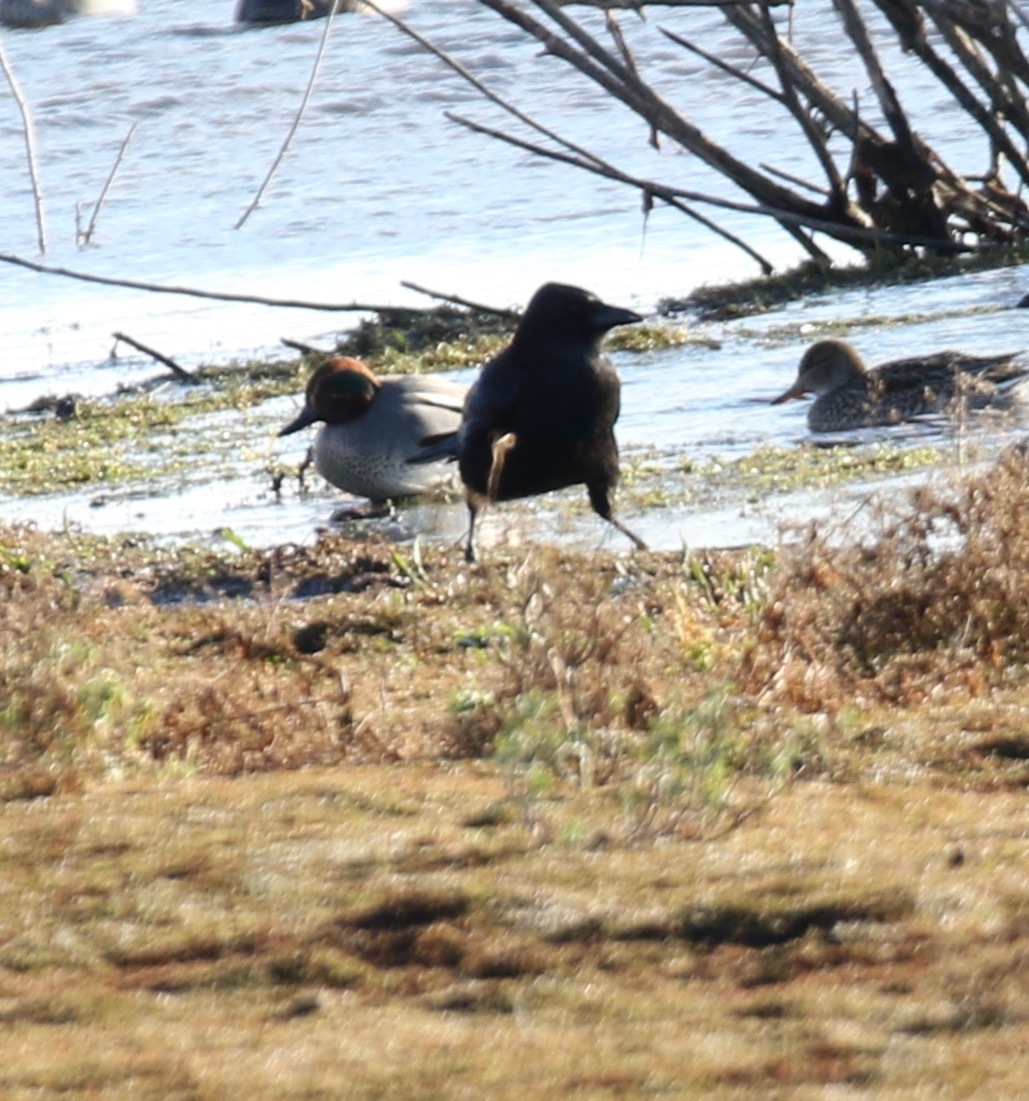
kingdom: Animalia
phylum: Chordata
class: Aves
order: Passeriformes
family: Corvidae
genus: Corvus
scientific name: Corvus corone
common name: Carrion crow
